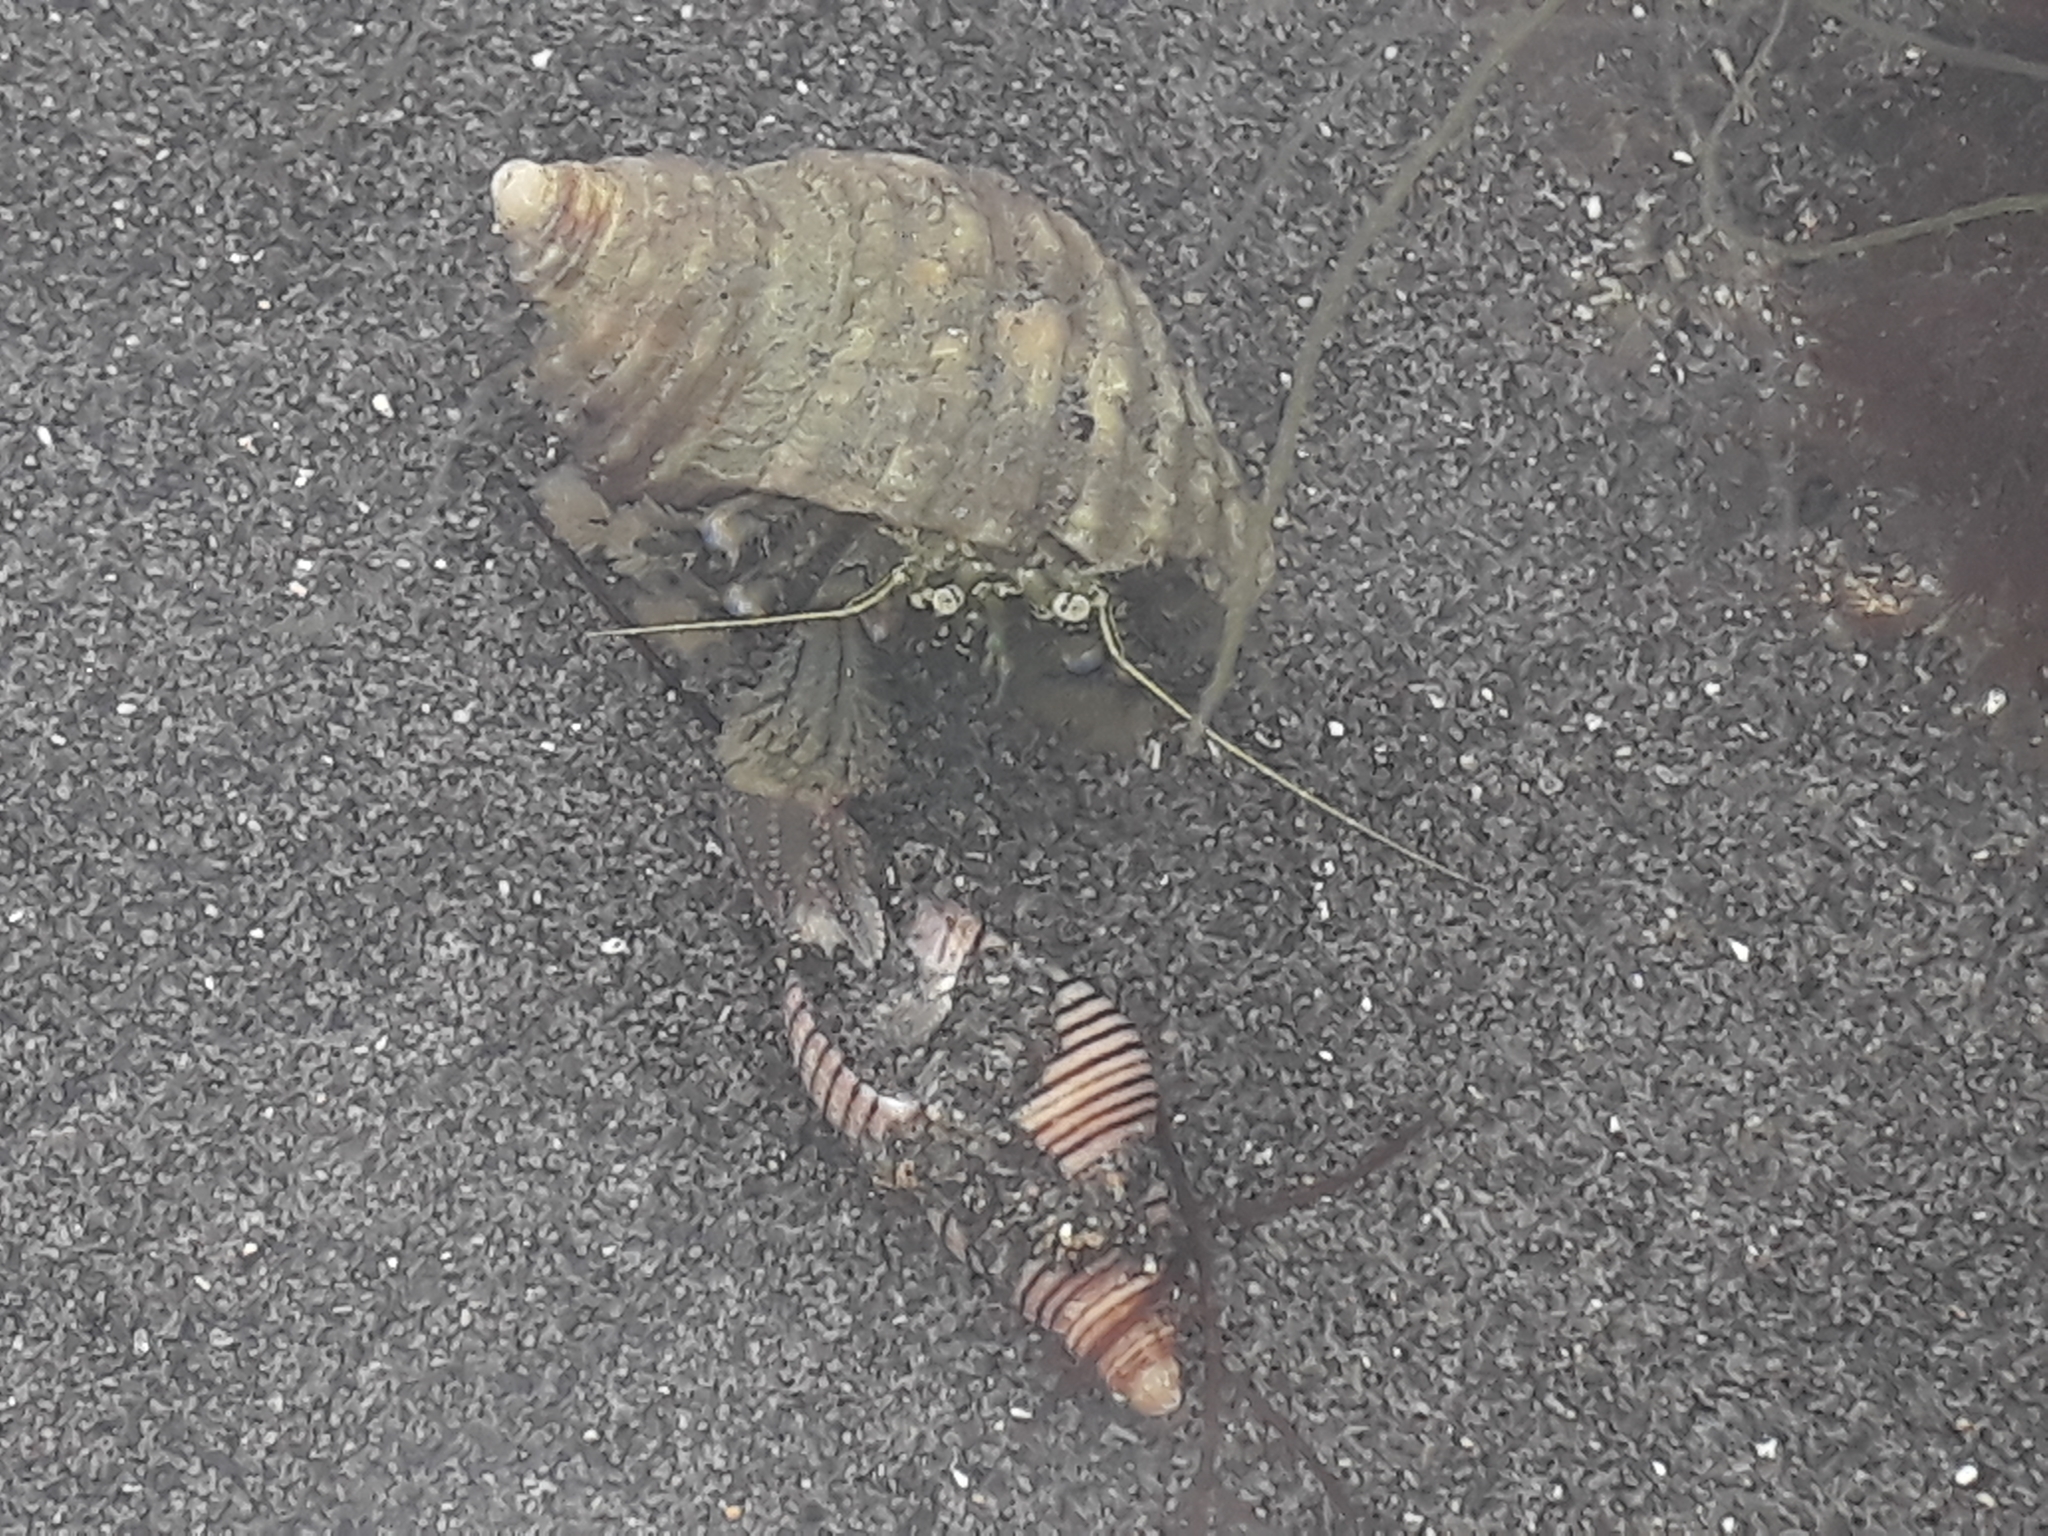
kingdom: Animalia
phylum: Arthropoda
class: Malacostraca
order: Decapoda
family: Paguridae
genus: Pagurus
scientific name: Pagurus novizealandiae
